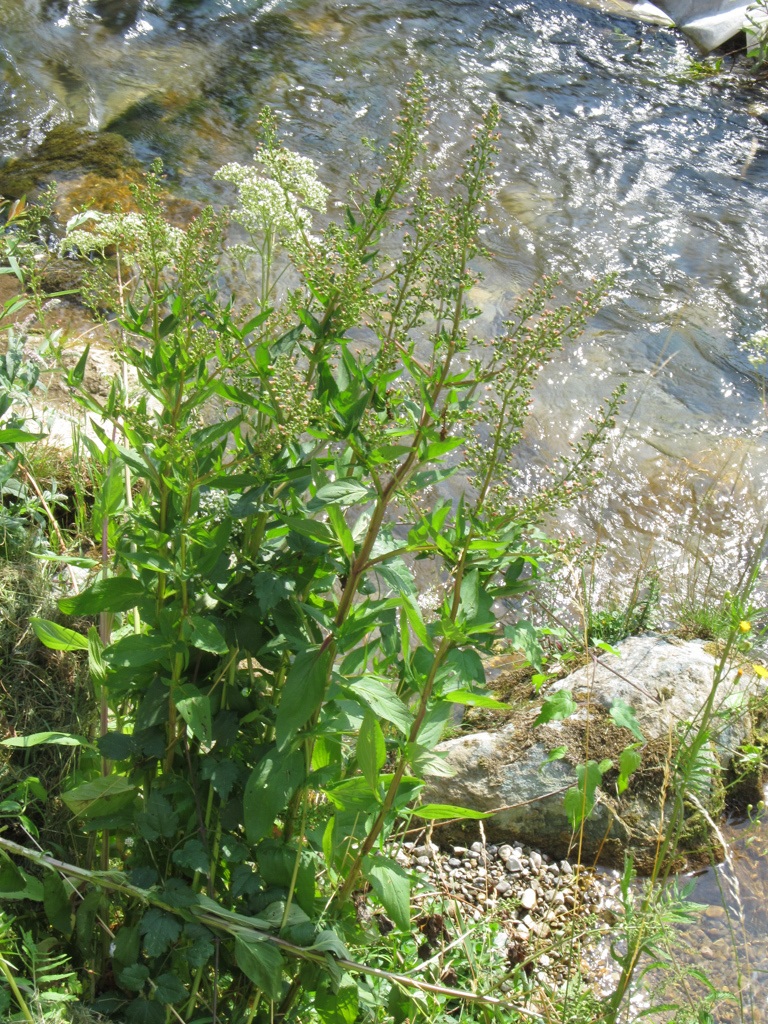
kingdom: Plantae
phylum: Tracheophyta
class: Magnoliopsida
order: Lamiales
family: Scrophulariaceae
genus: Scrophularia
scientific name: Scrophularia umbrosa
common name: Green figwort
